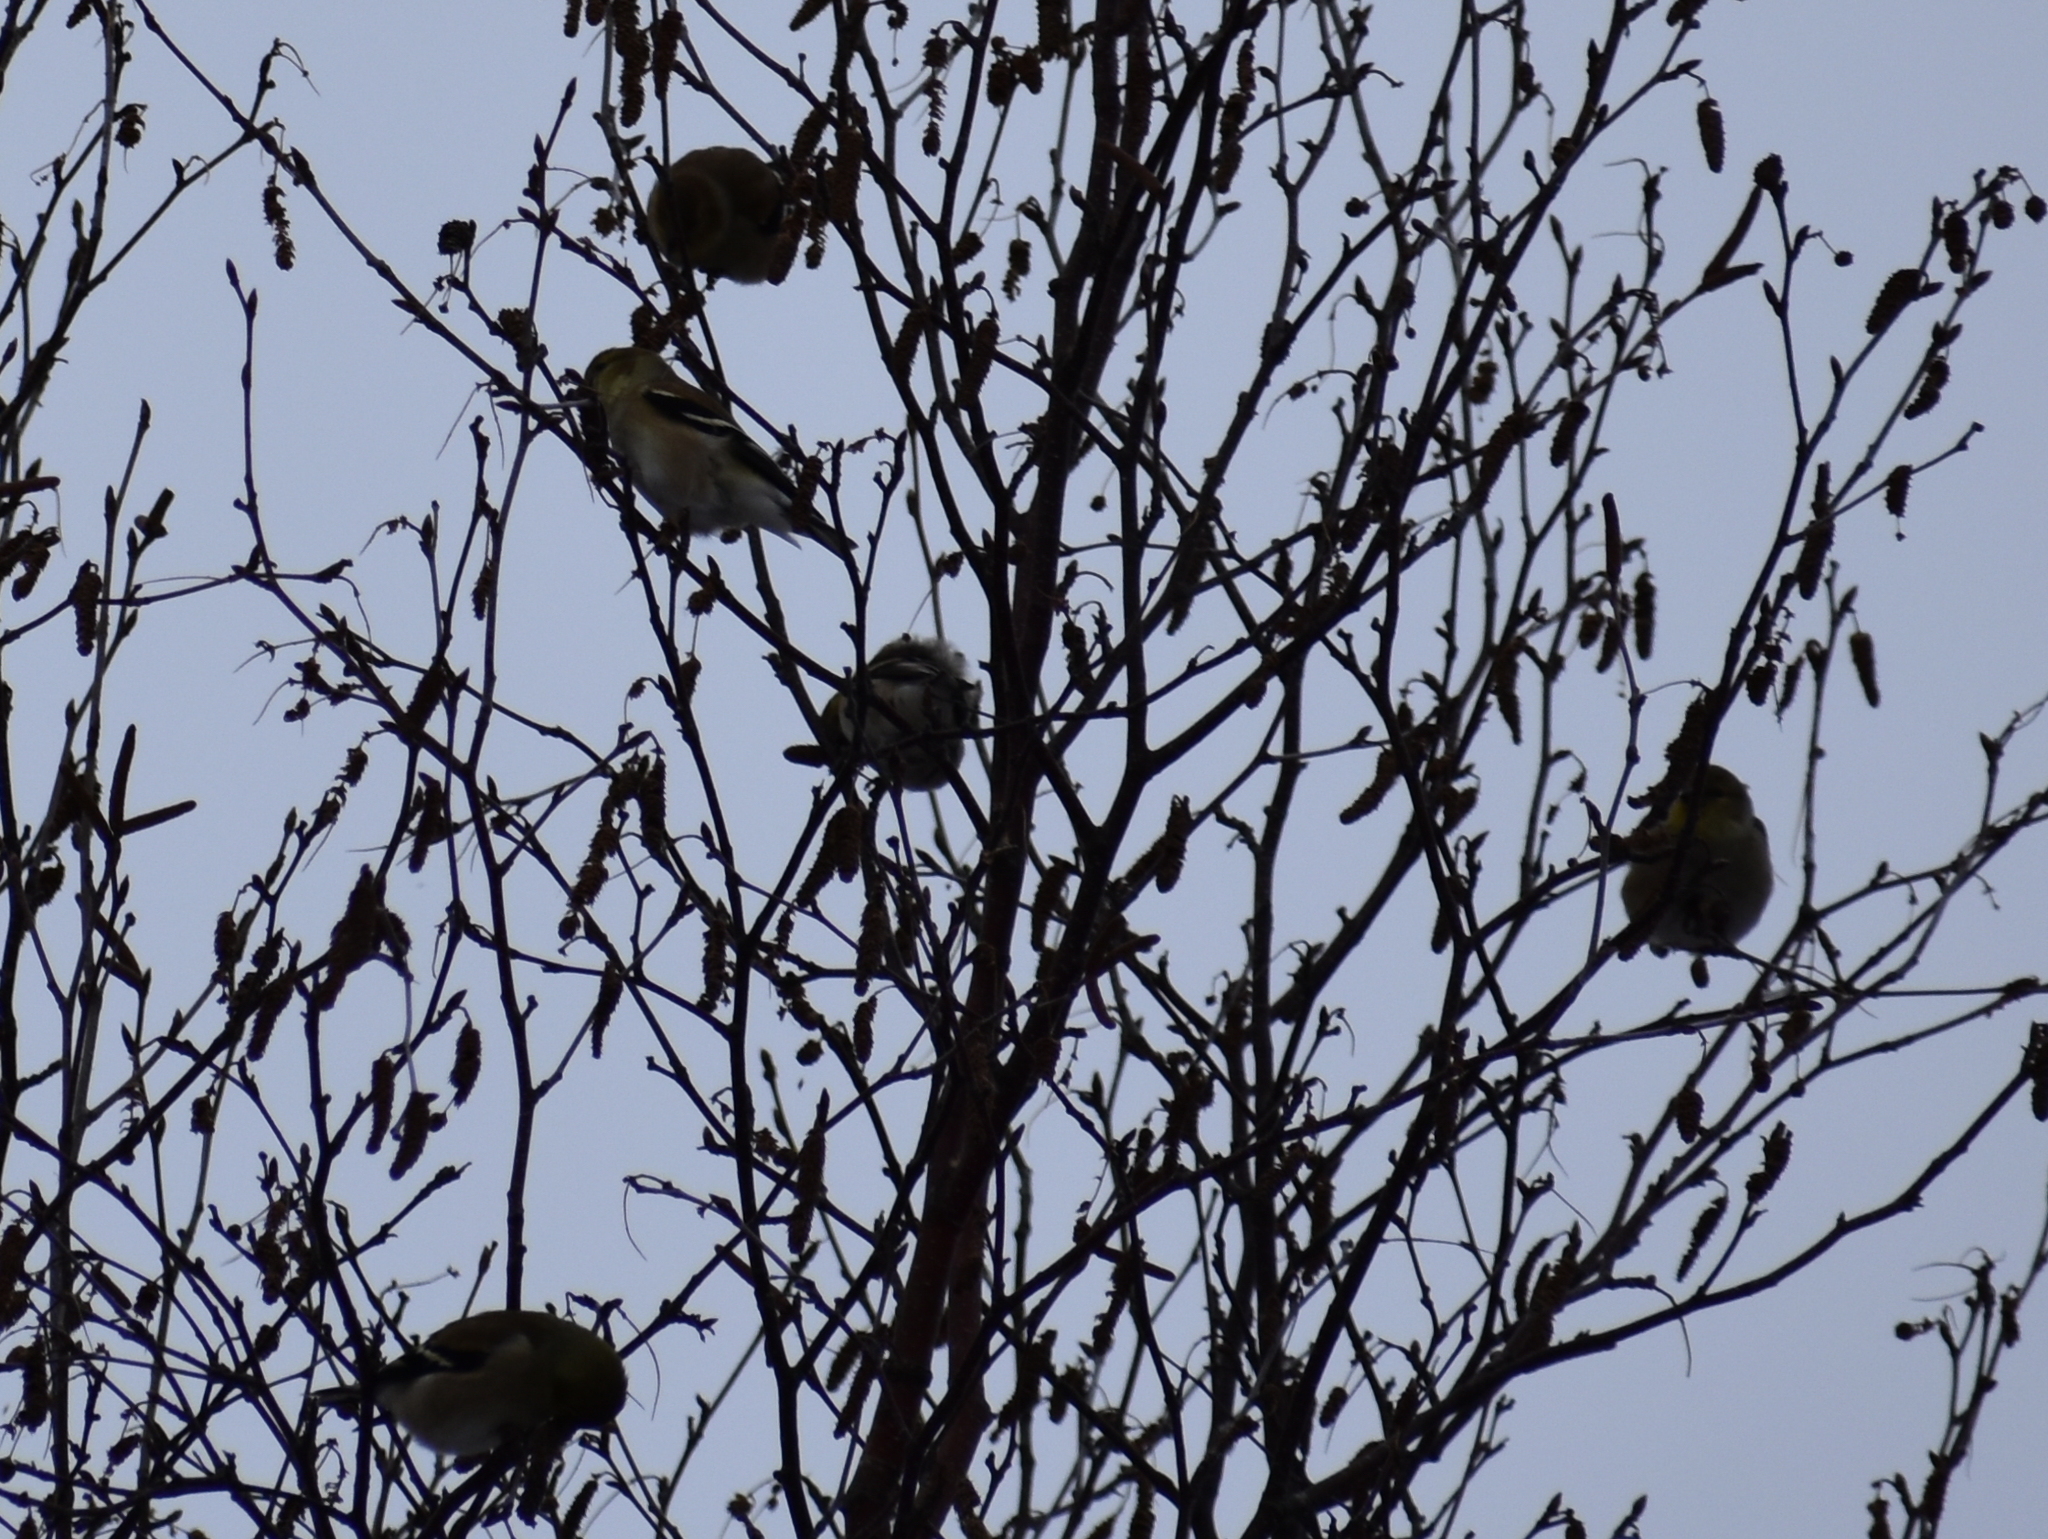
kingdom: Animalia
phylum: Chordata
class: Aves
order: Passeriformes
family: Fringillidae
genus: Spinus
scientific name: Spinus tristis
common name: American goldfinch
